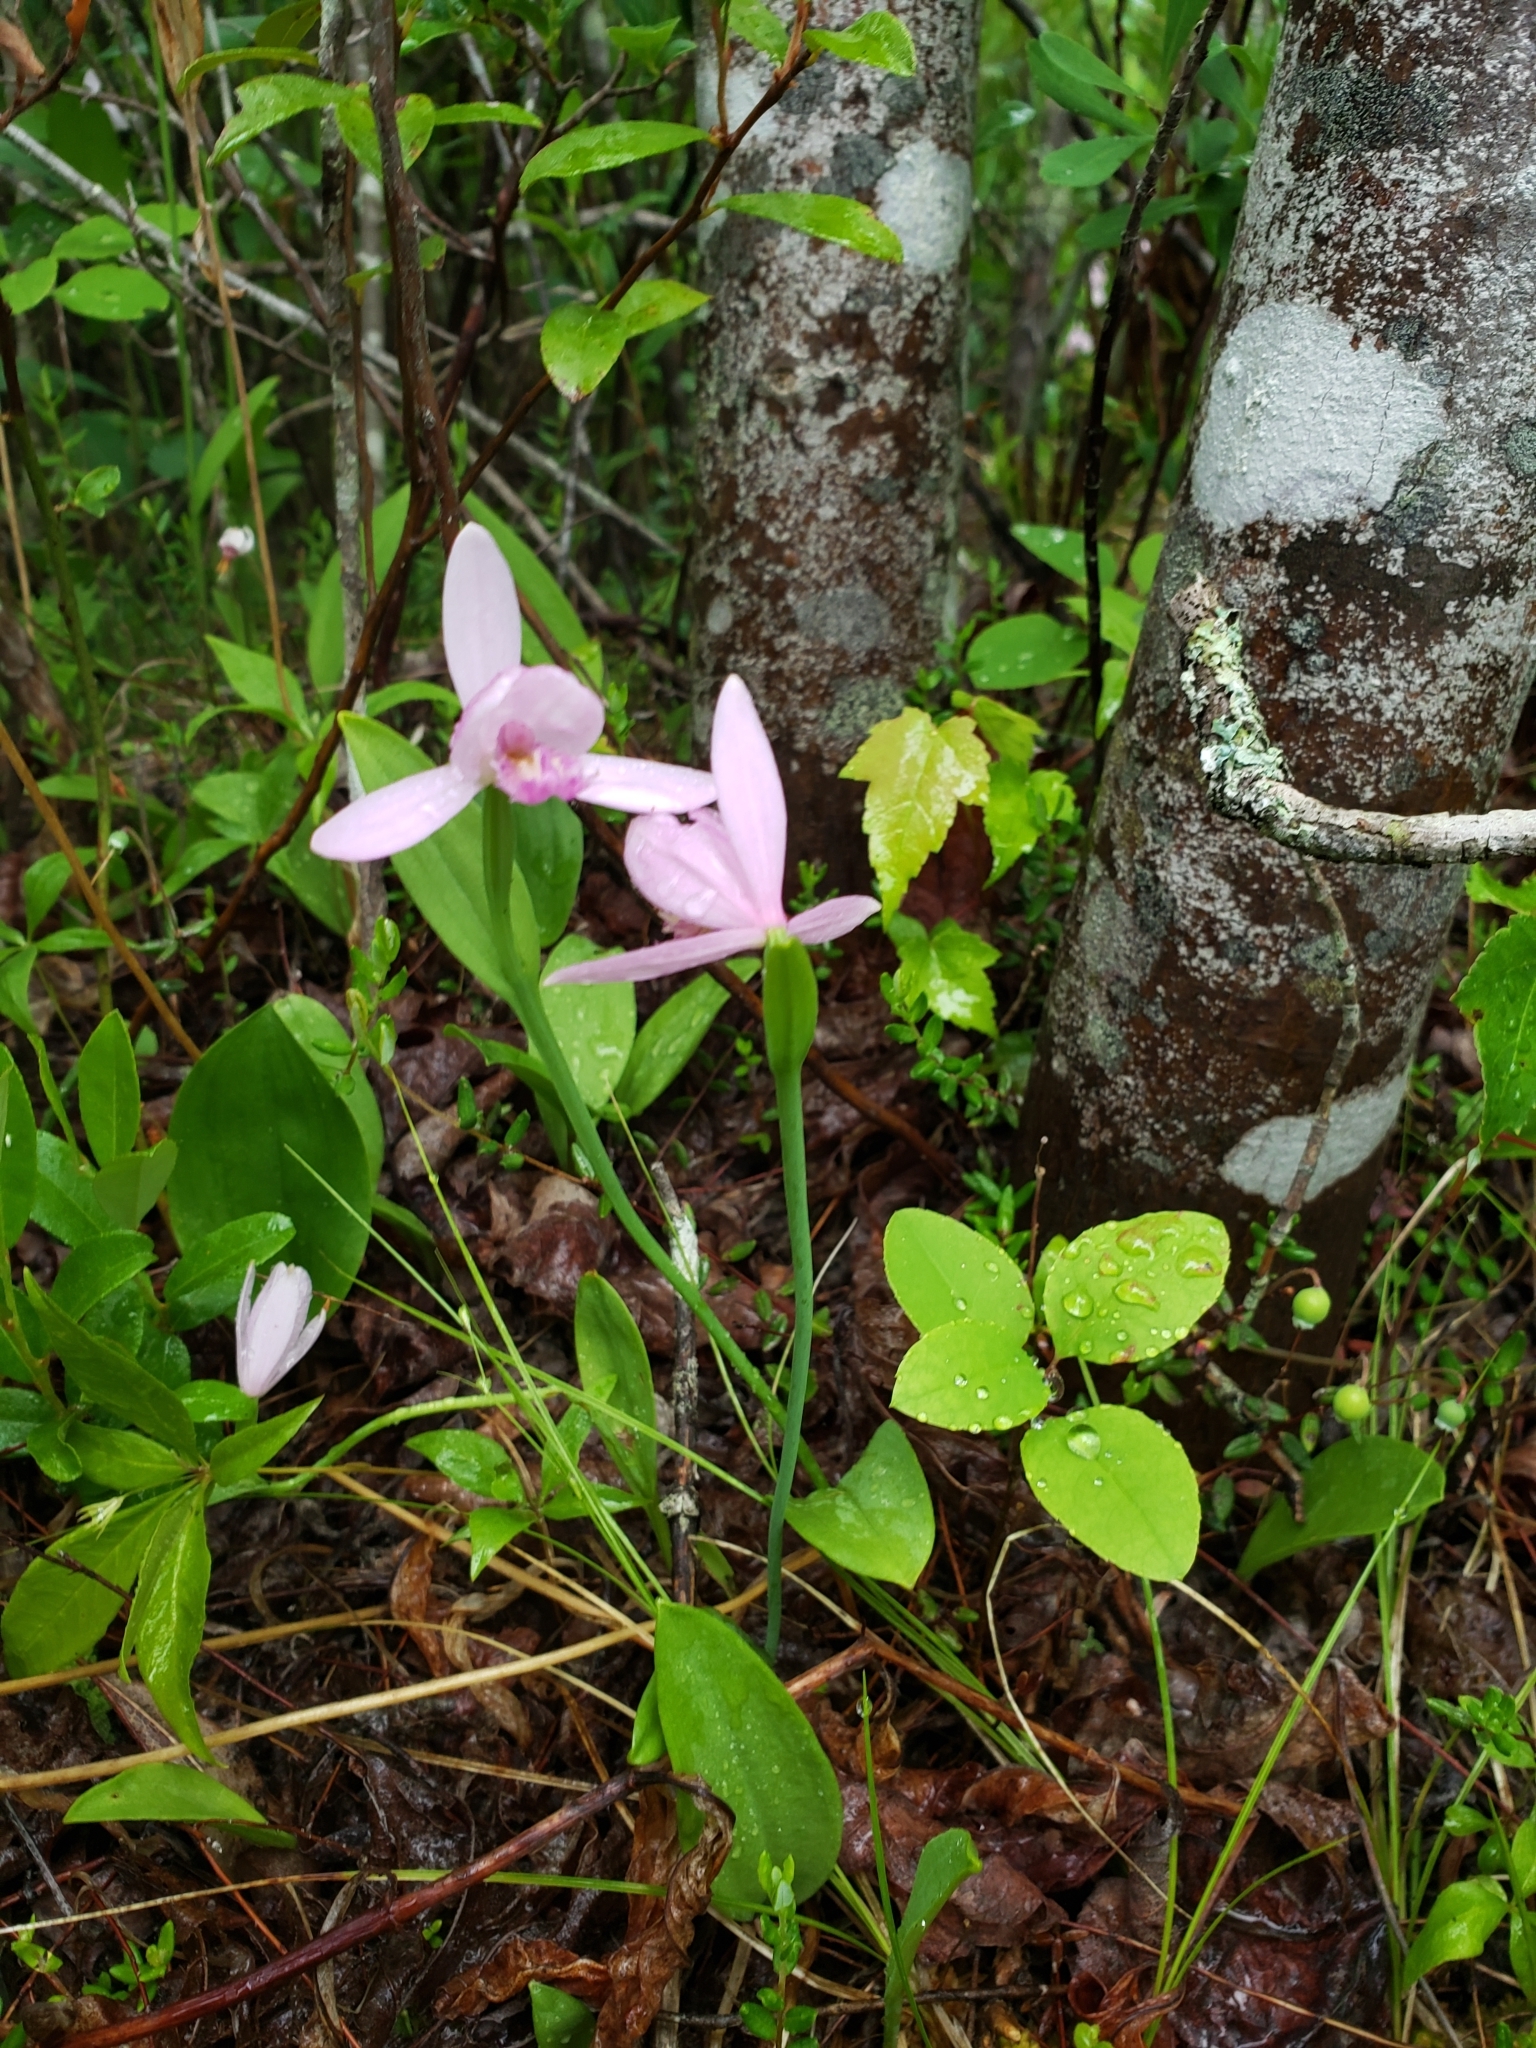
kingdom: Plantae
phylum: Tracheophyta
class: Liliopsida
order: Asparagales
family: Orchidaceae
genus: Pogonia
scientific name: Pogonia ophioglossoides
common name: Rose pogonia
